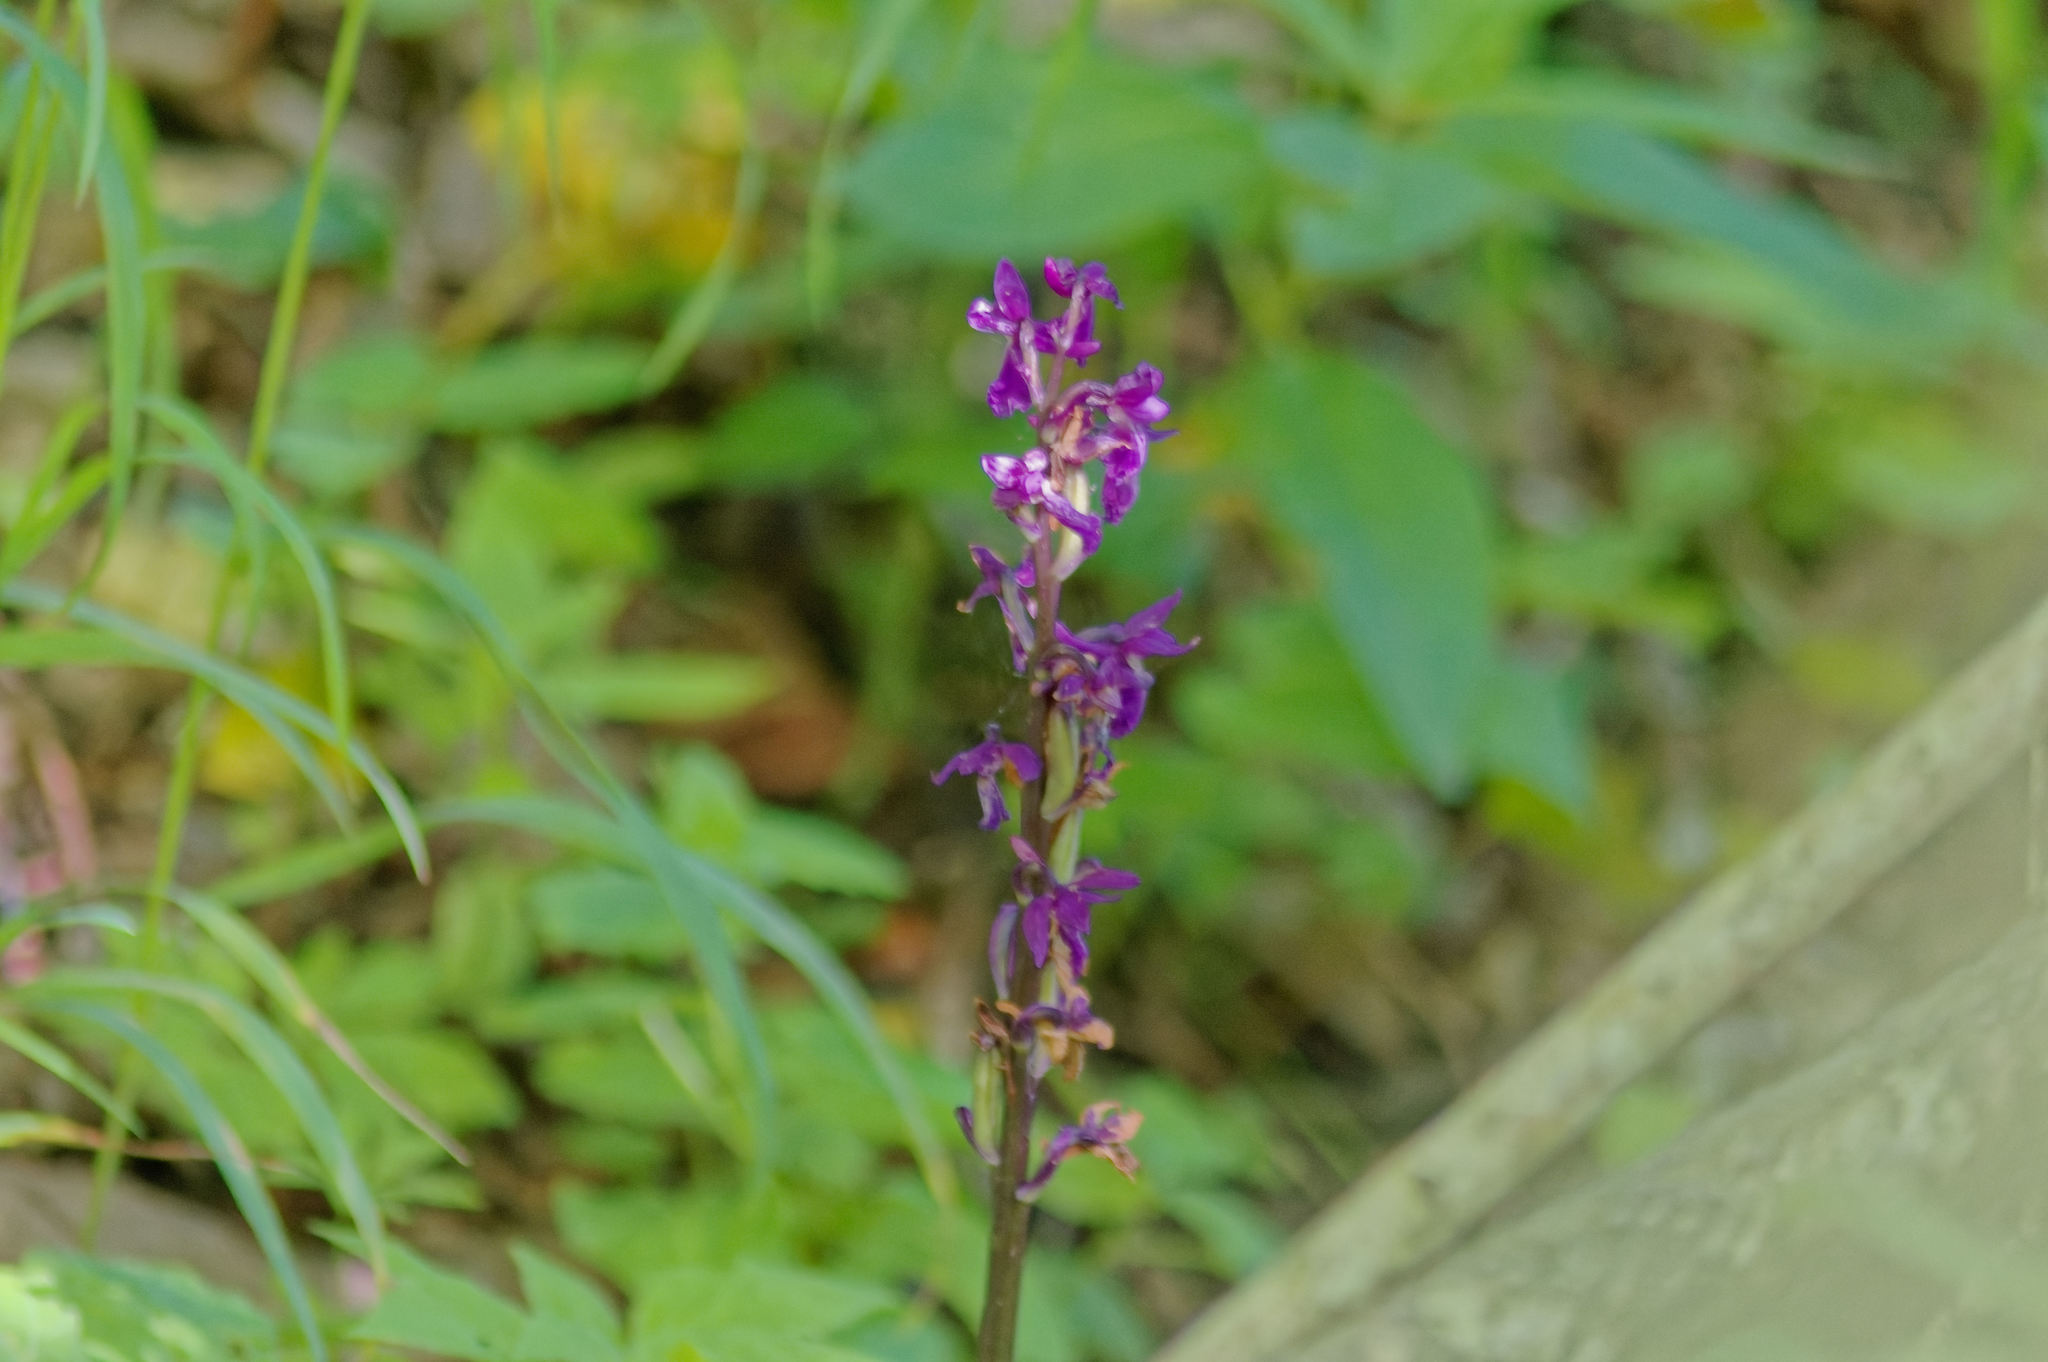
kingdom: Plantae
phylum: Tracheophyta
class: Liliopsida
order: Asparagales
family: Orchidaceae
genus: Orchis
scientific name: Orchis mascula
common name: Early-purple orchid
